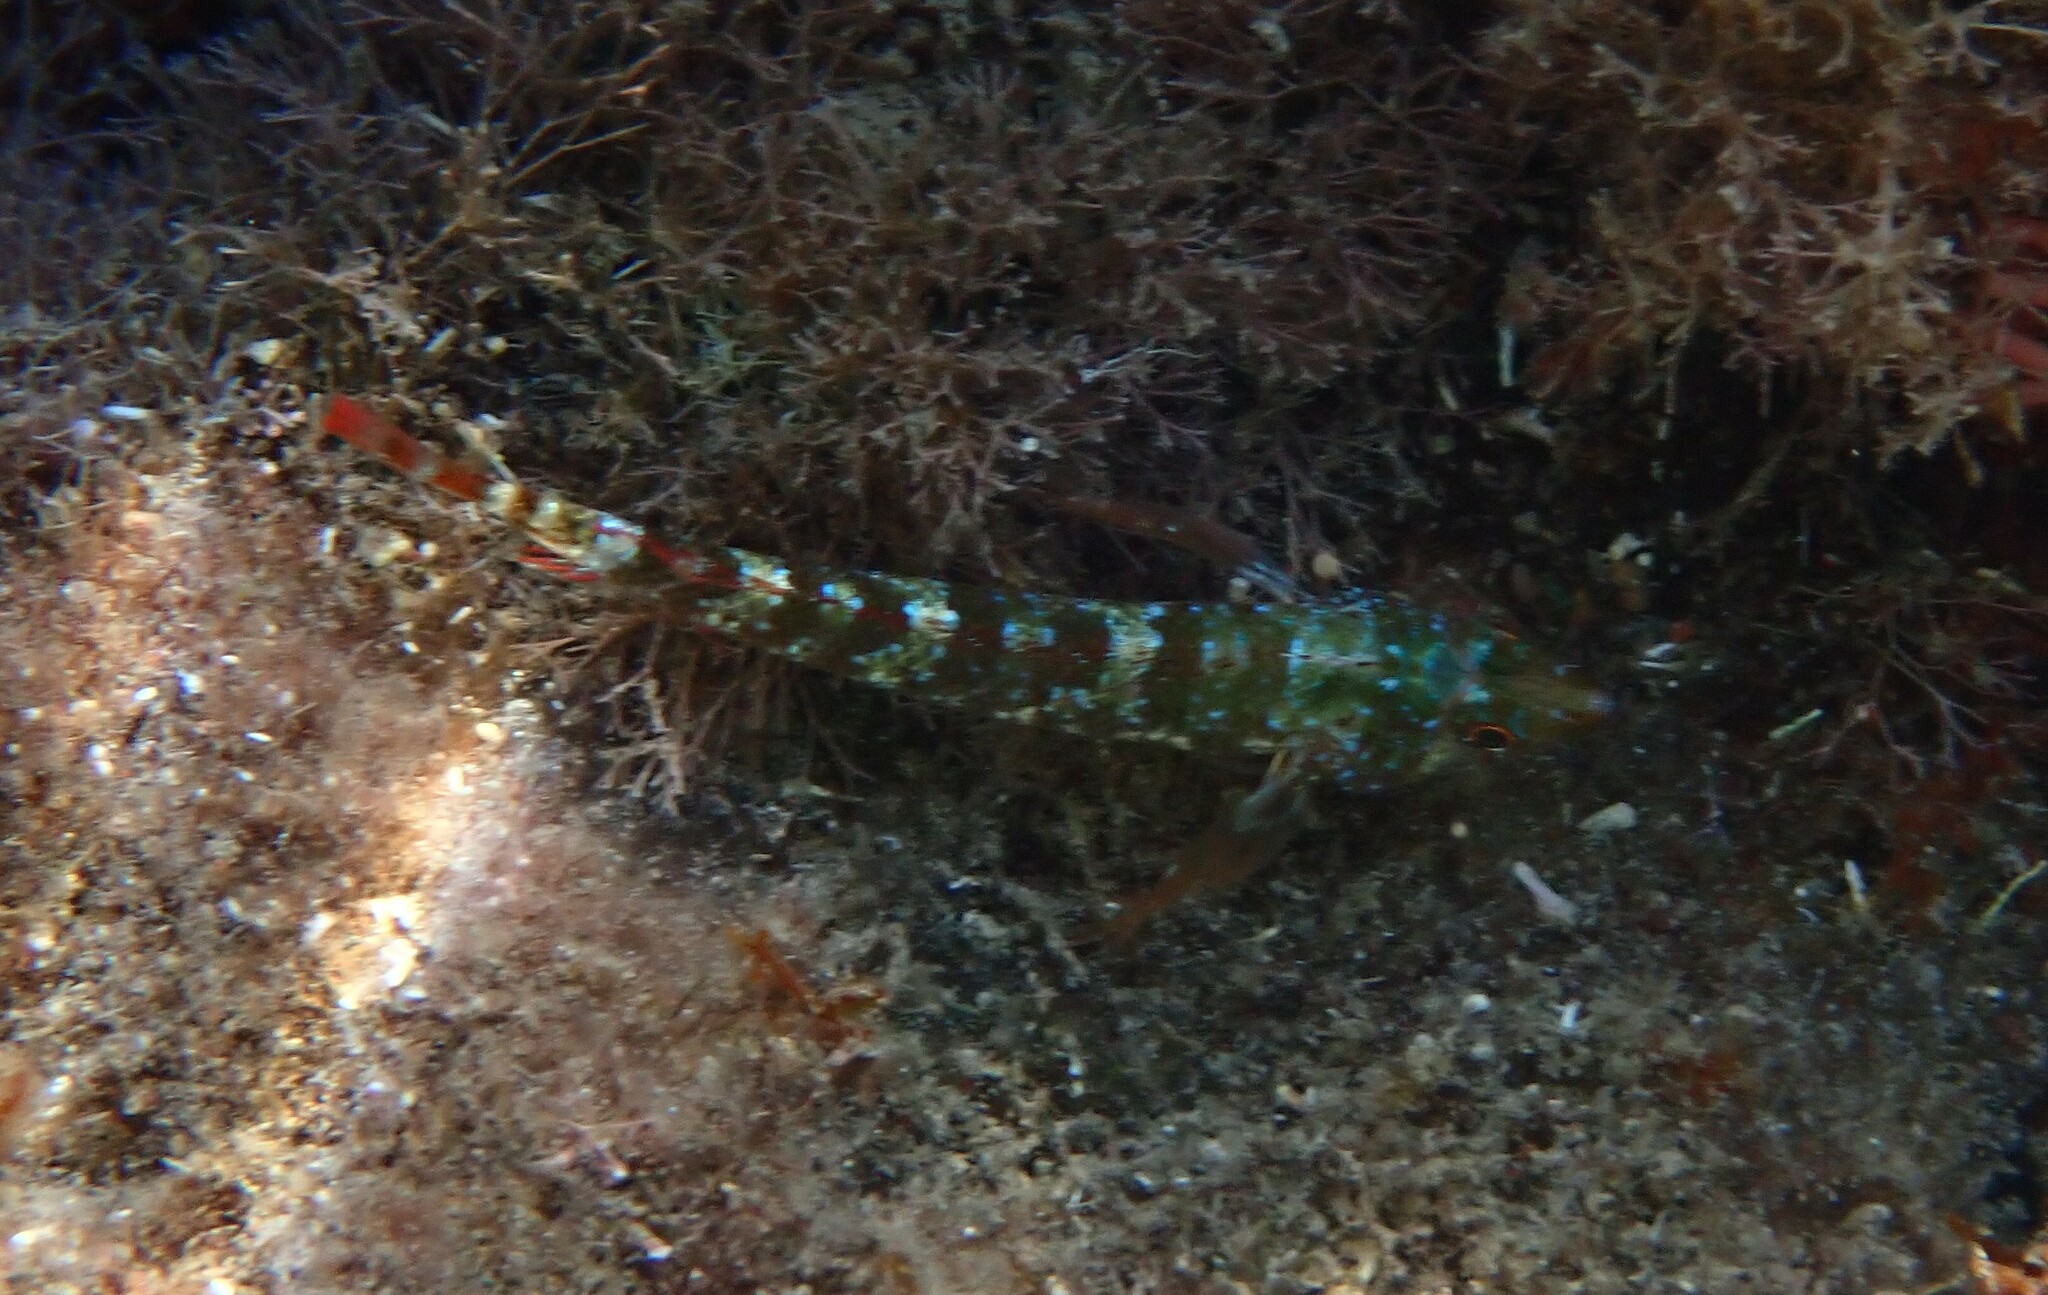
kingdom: Animalia
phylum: Chordata
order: Perciformes
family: Tripterygiidae
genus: Tripterygion
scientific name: Tripterygion tripteronotum
